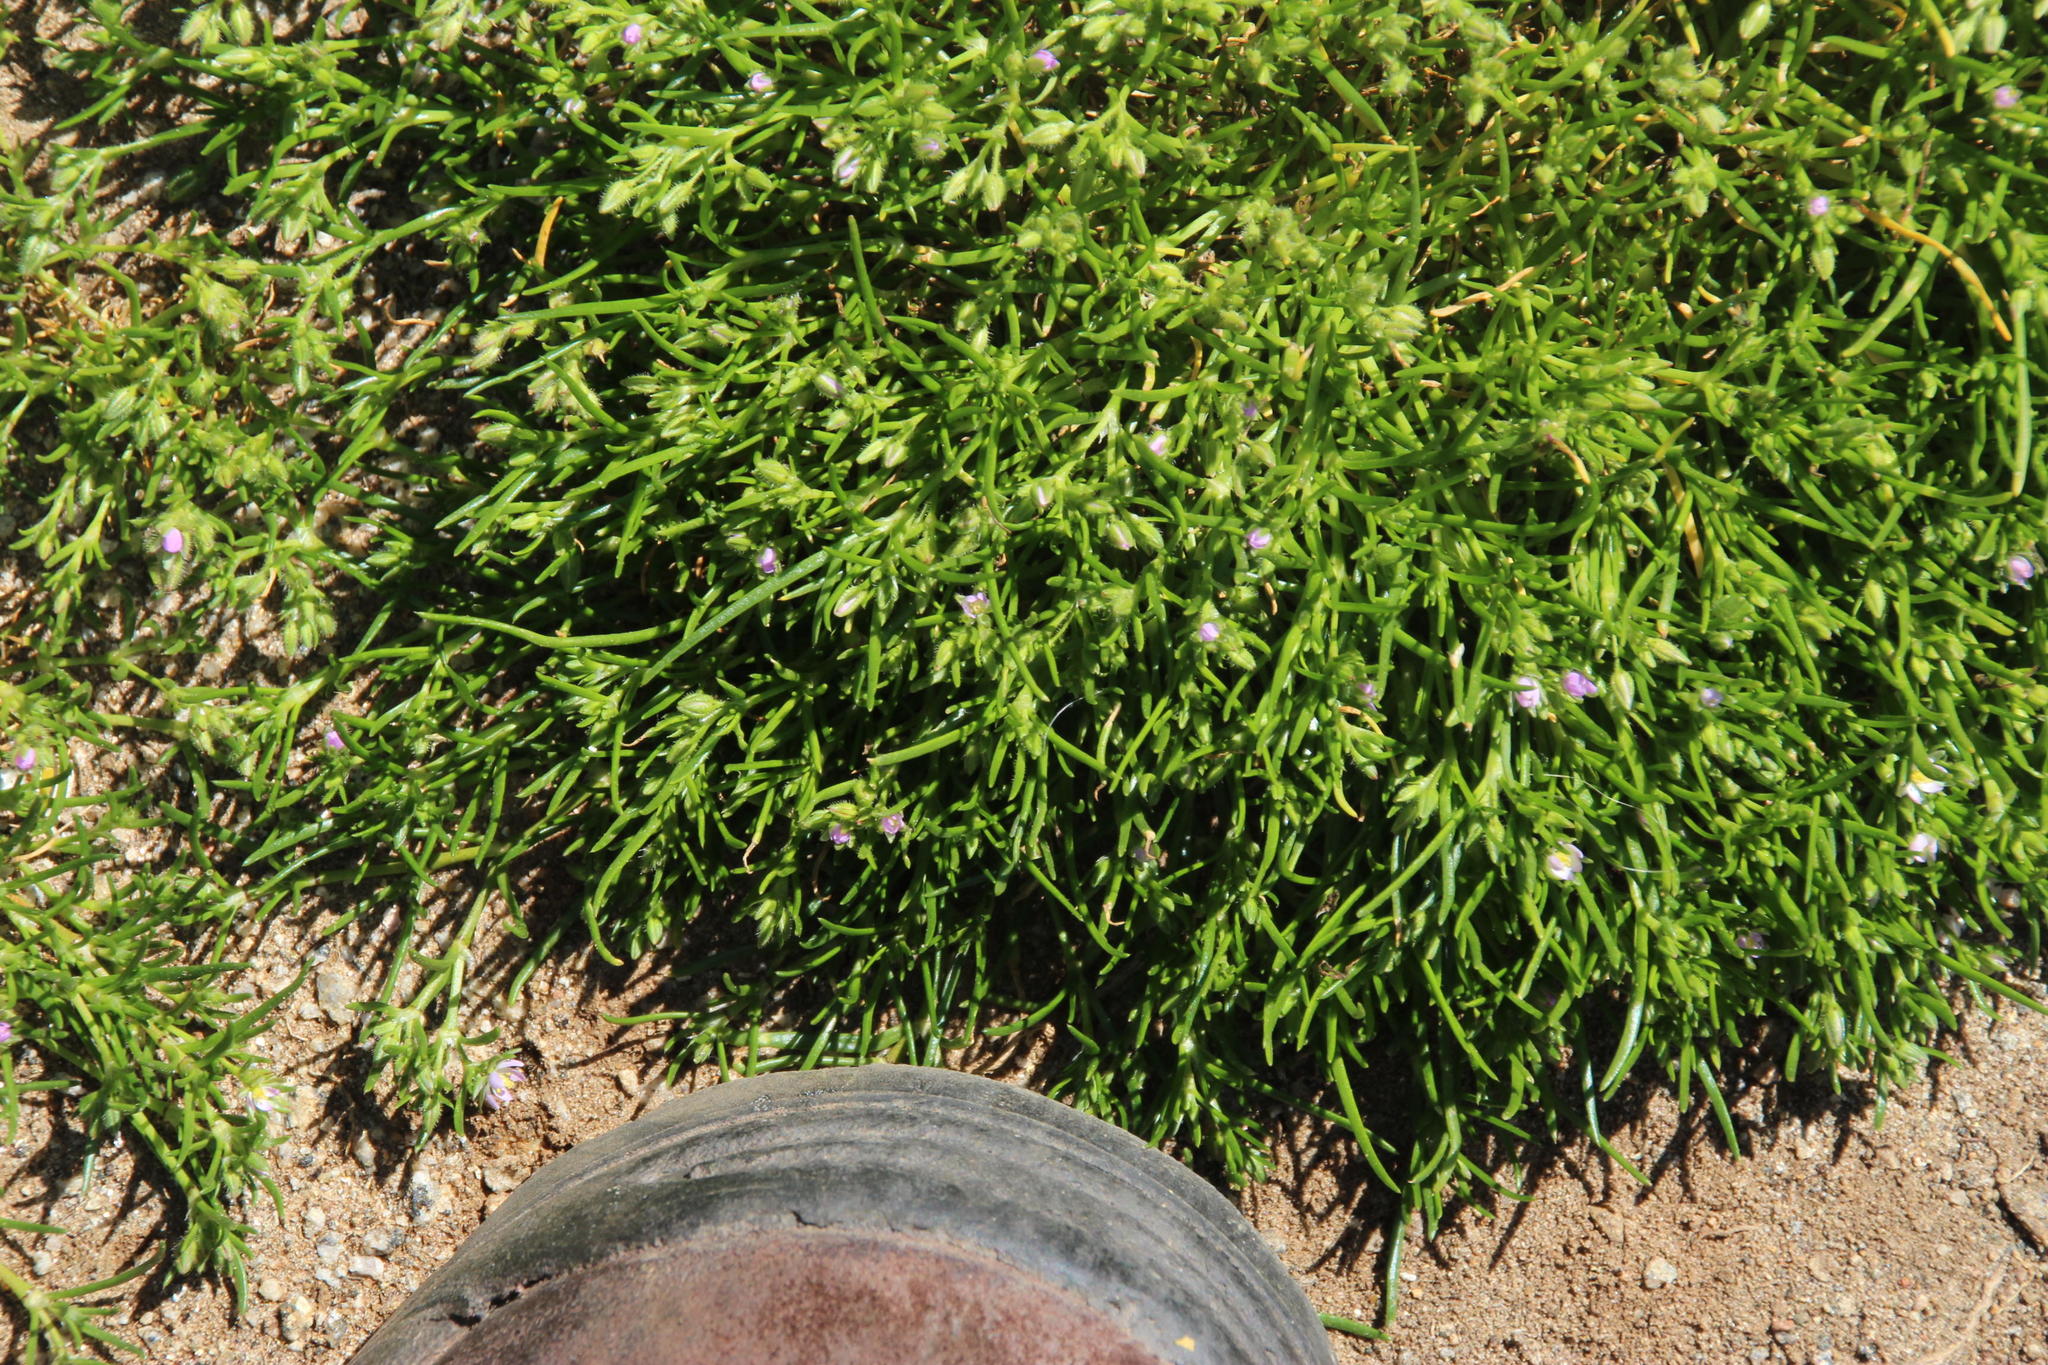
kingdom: Plantae
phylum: Tracheophyta
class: Magnoliopsida
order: Caryophyllales
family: Caryophyllaceae
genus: Spergularia
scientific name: Spergularia rubra
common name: Red sand-spurrey
